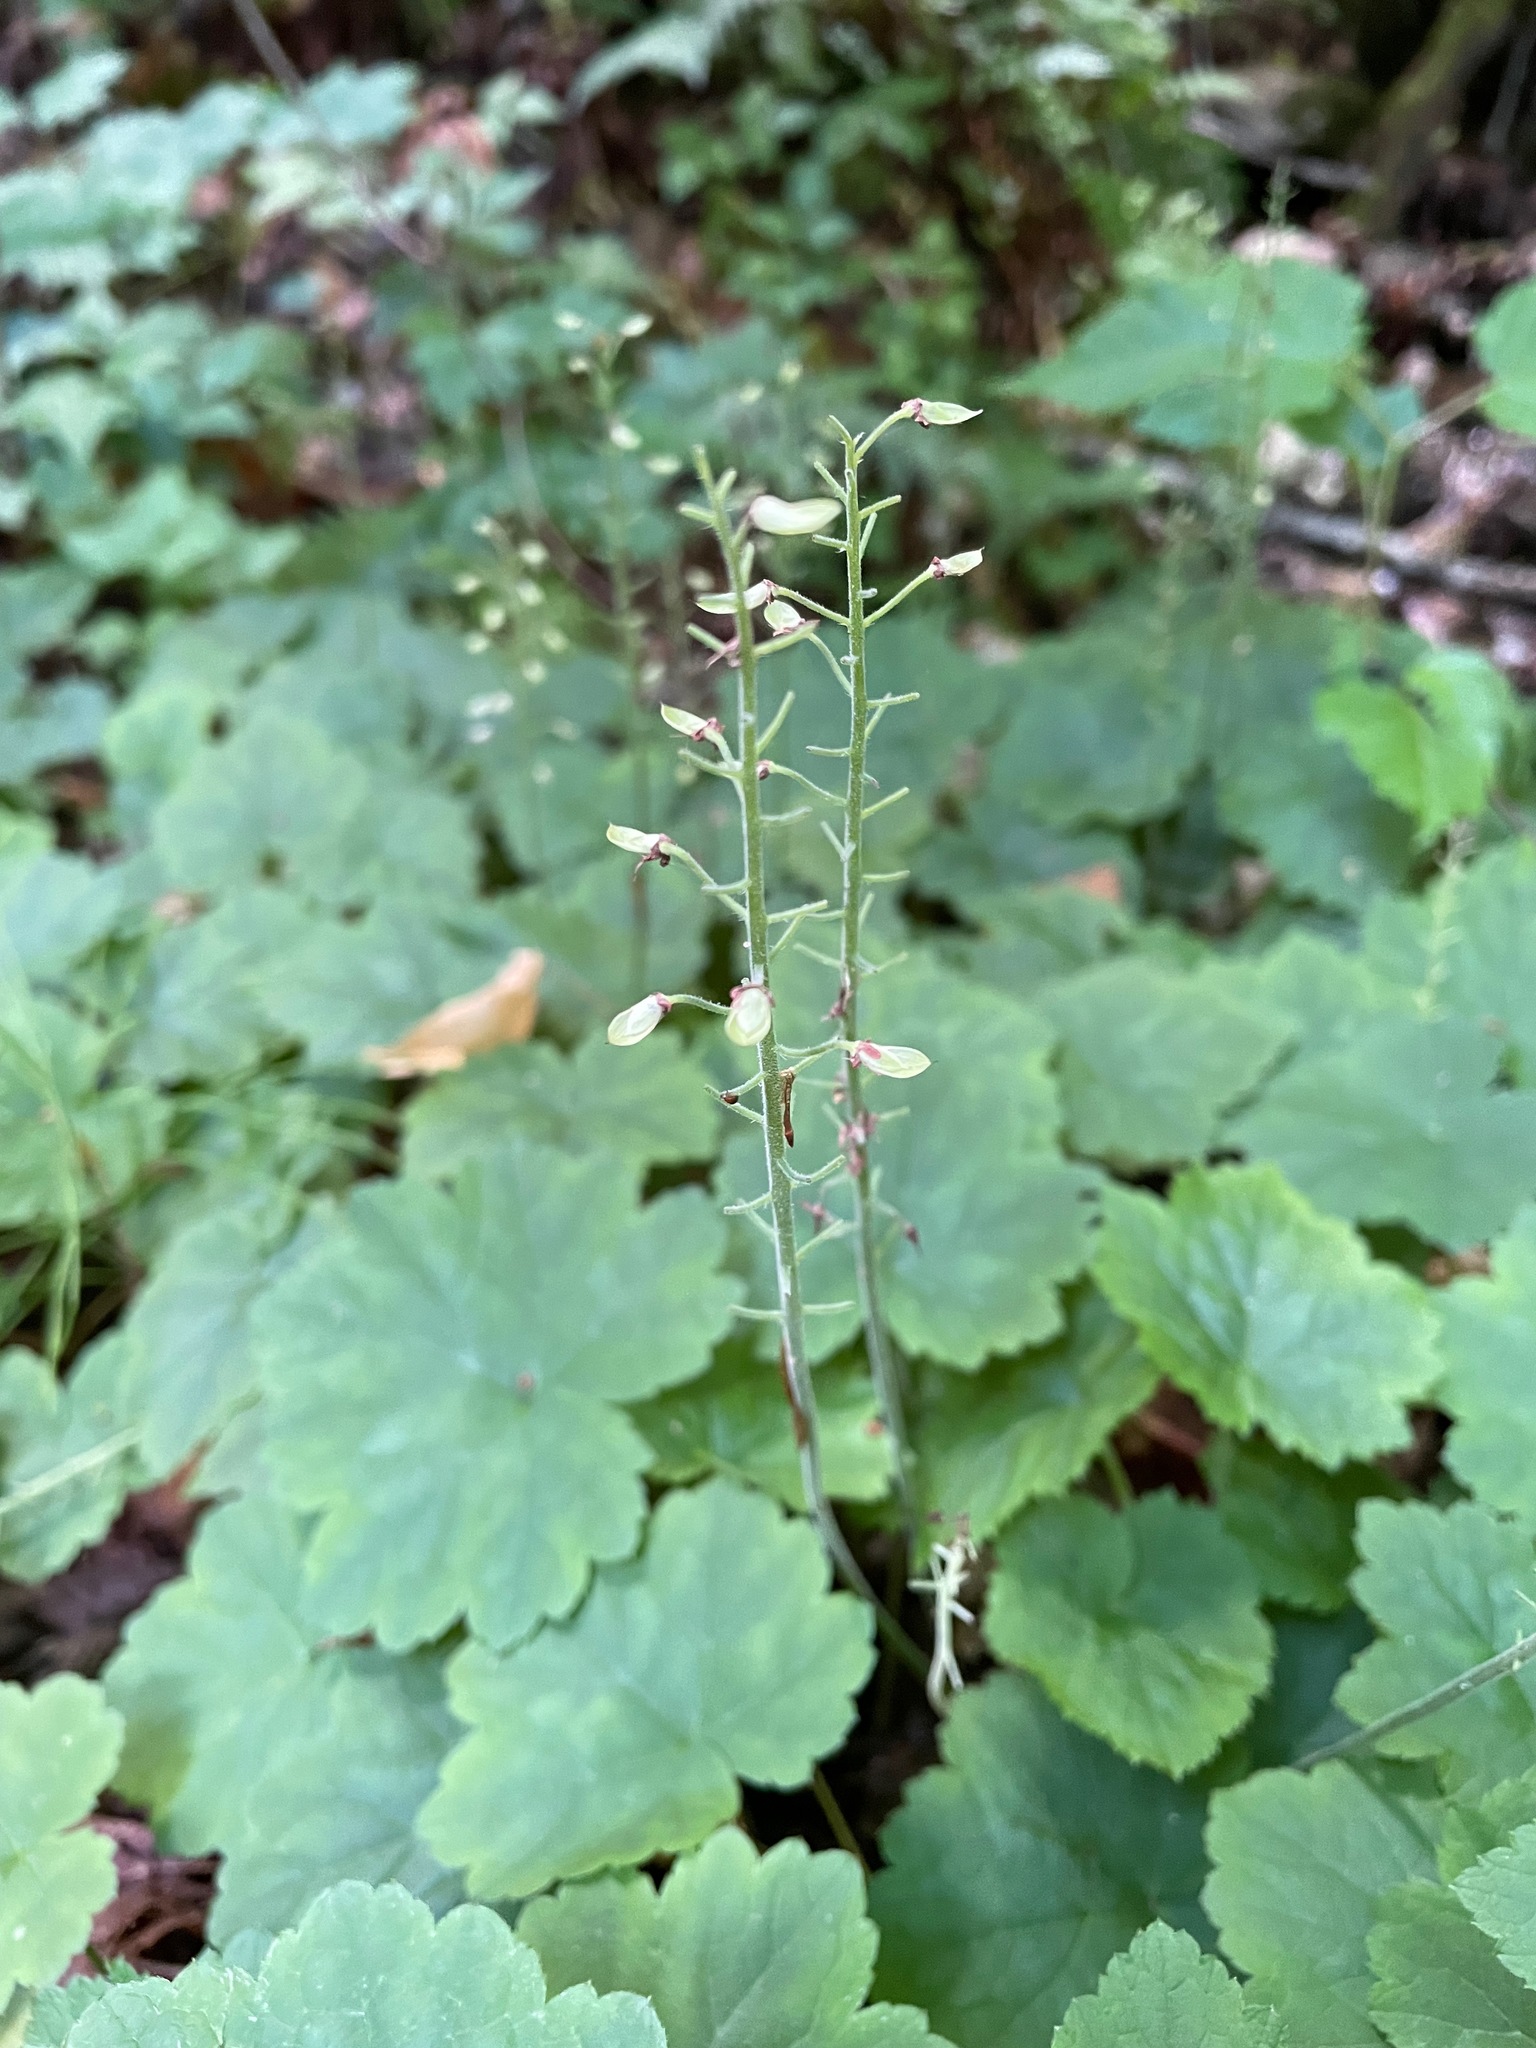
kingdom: Plantae
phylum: Tracheophyta
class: Magnoliopsida
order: Saxifragales
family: Saxifragaceae
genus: Tiarella
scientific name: Tiarella stolonifera
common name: Stoloniferous foamflower
